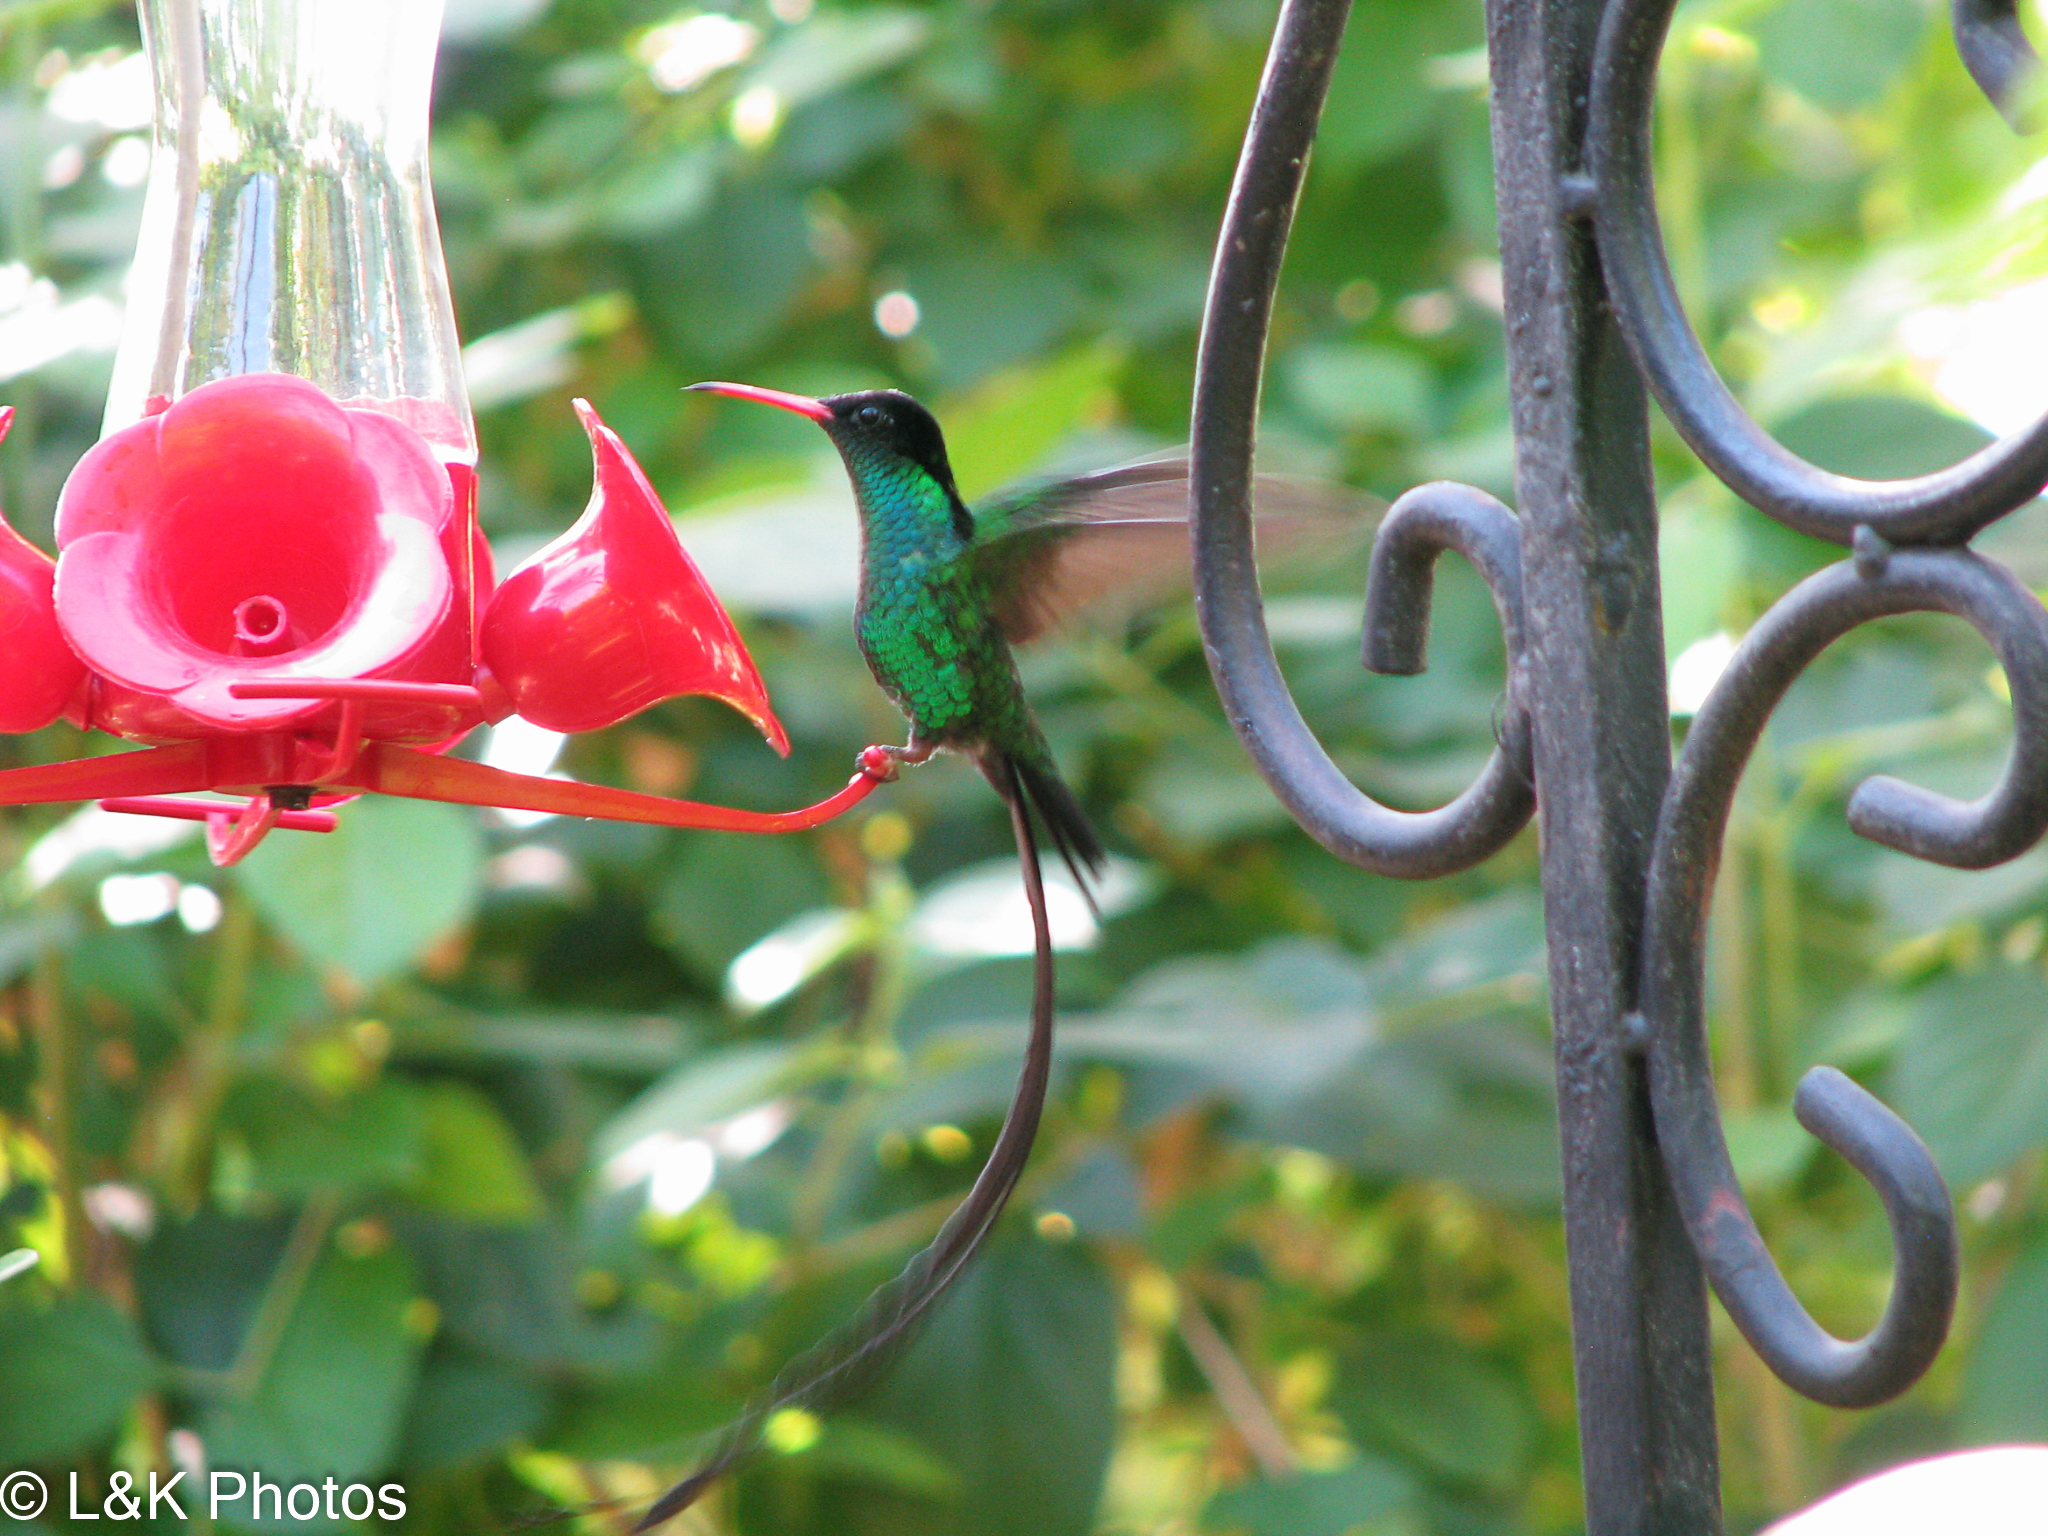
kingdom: Animalia
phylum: Chordata
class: Aves
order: Apodiformes
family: Trochilidae
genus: Trochilus
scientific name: Trochilus polytmus
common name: Red-billed streamertail
